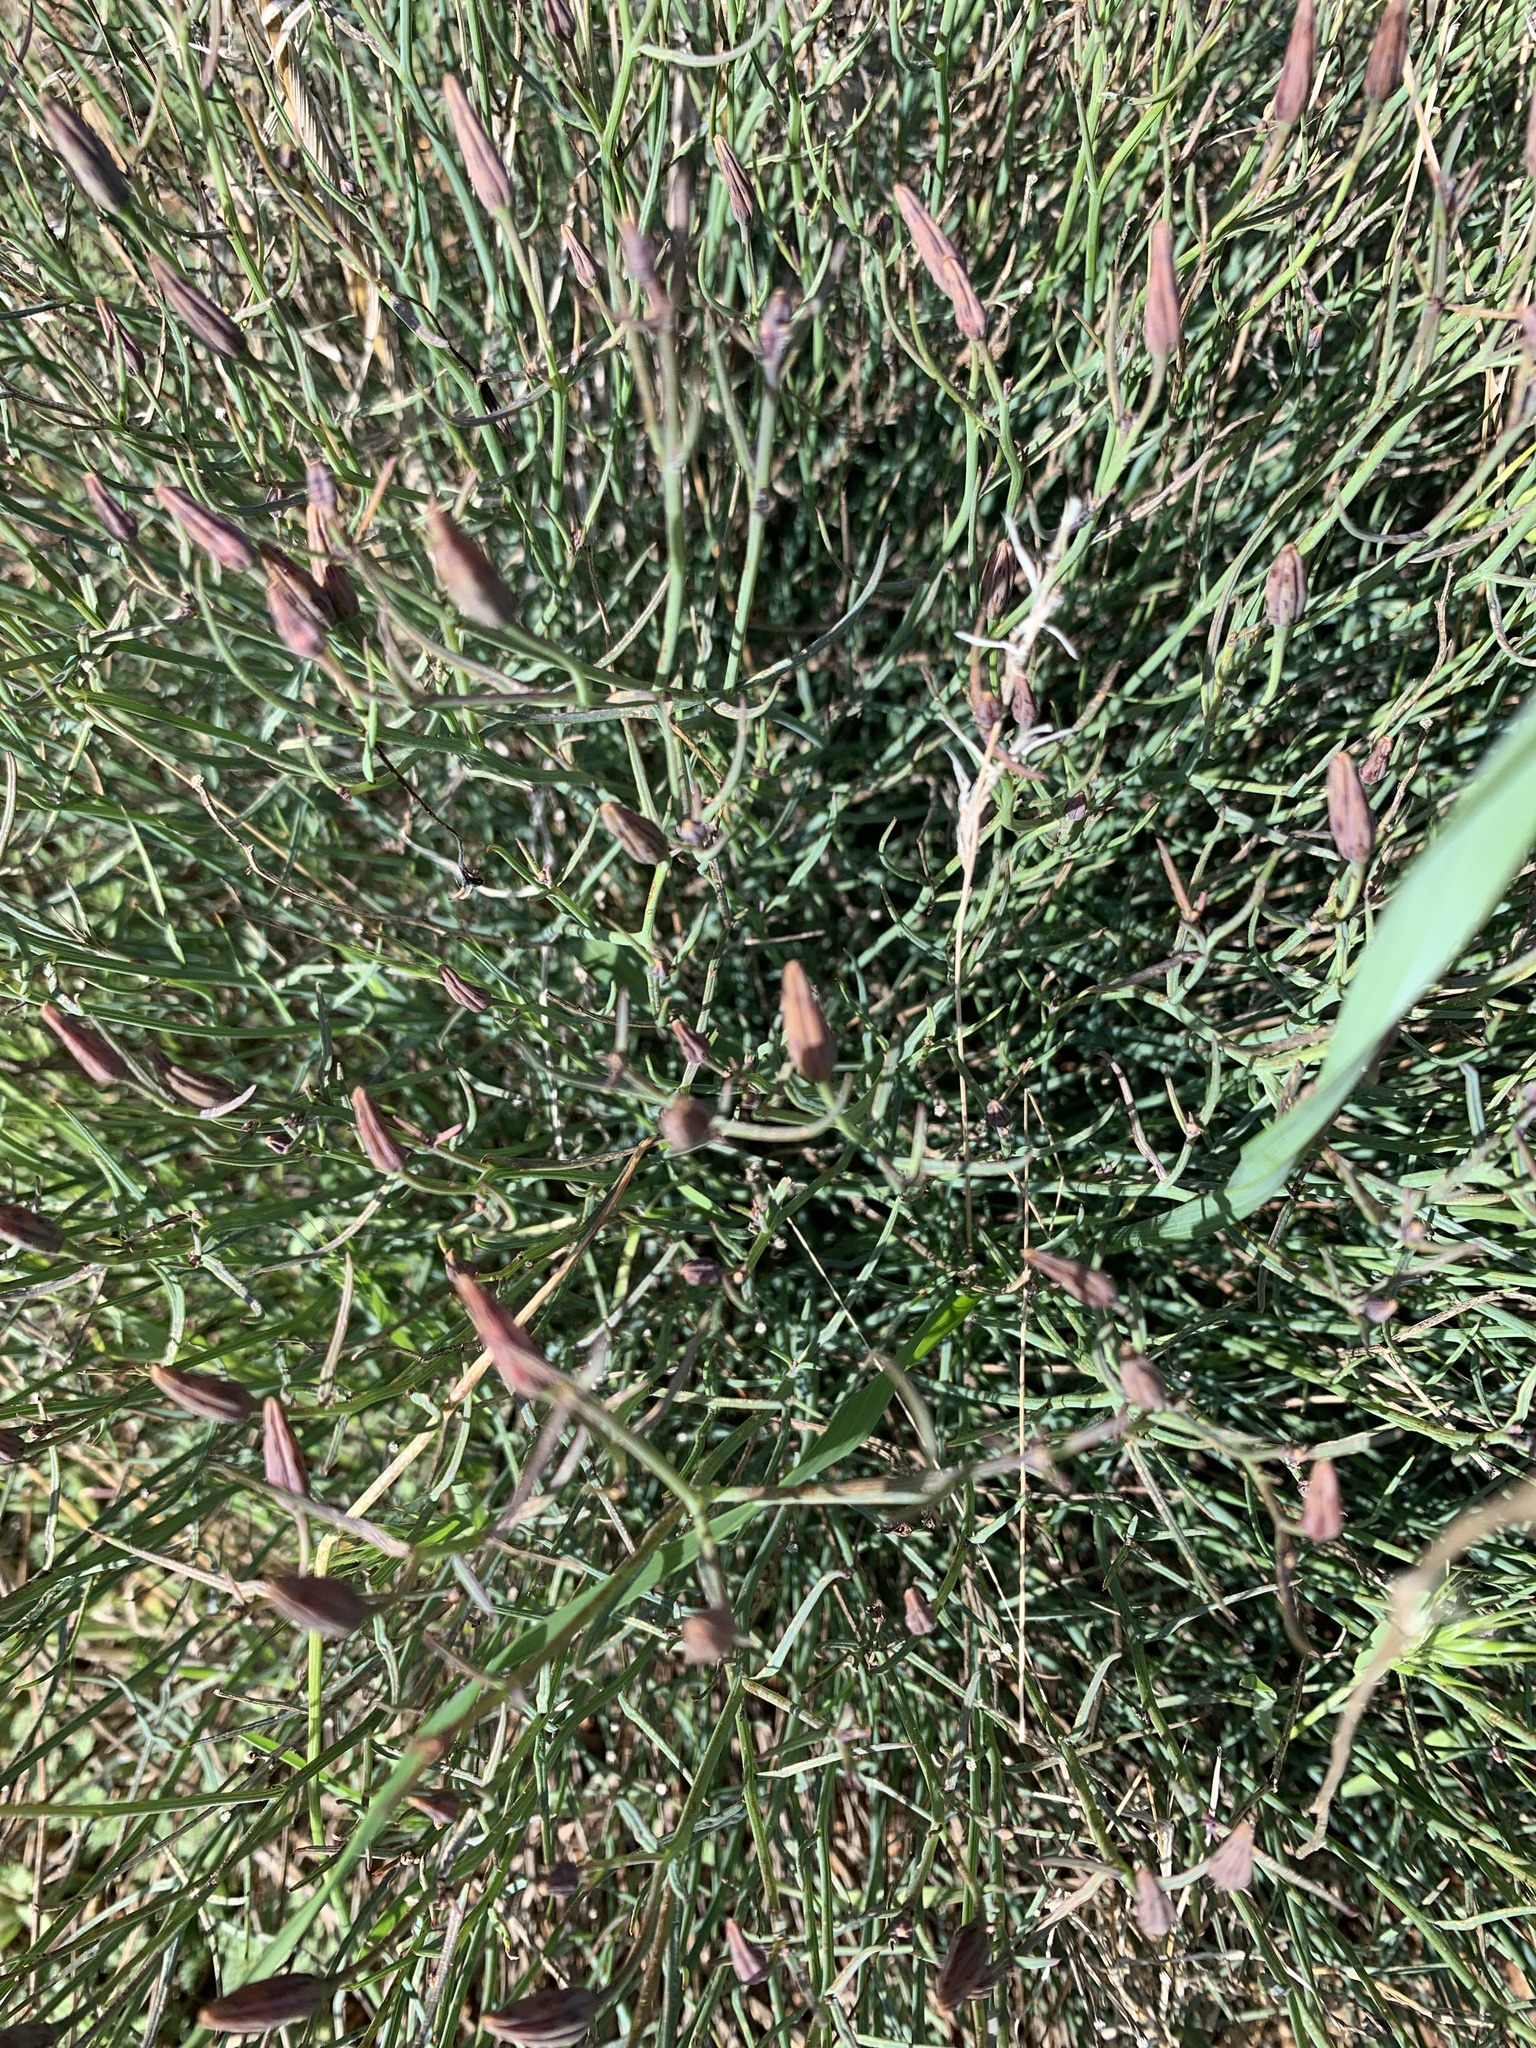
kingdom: Plantae
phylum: Tracheophyta
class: Magnoliopsida
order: Asterales
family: Asteraceae
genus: Porophyllum
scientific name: Porophyllum gracile
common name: Odora
